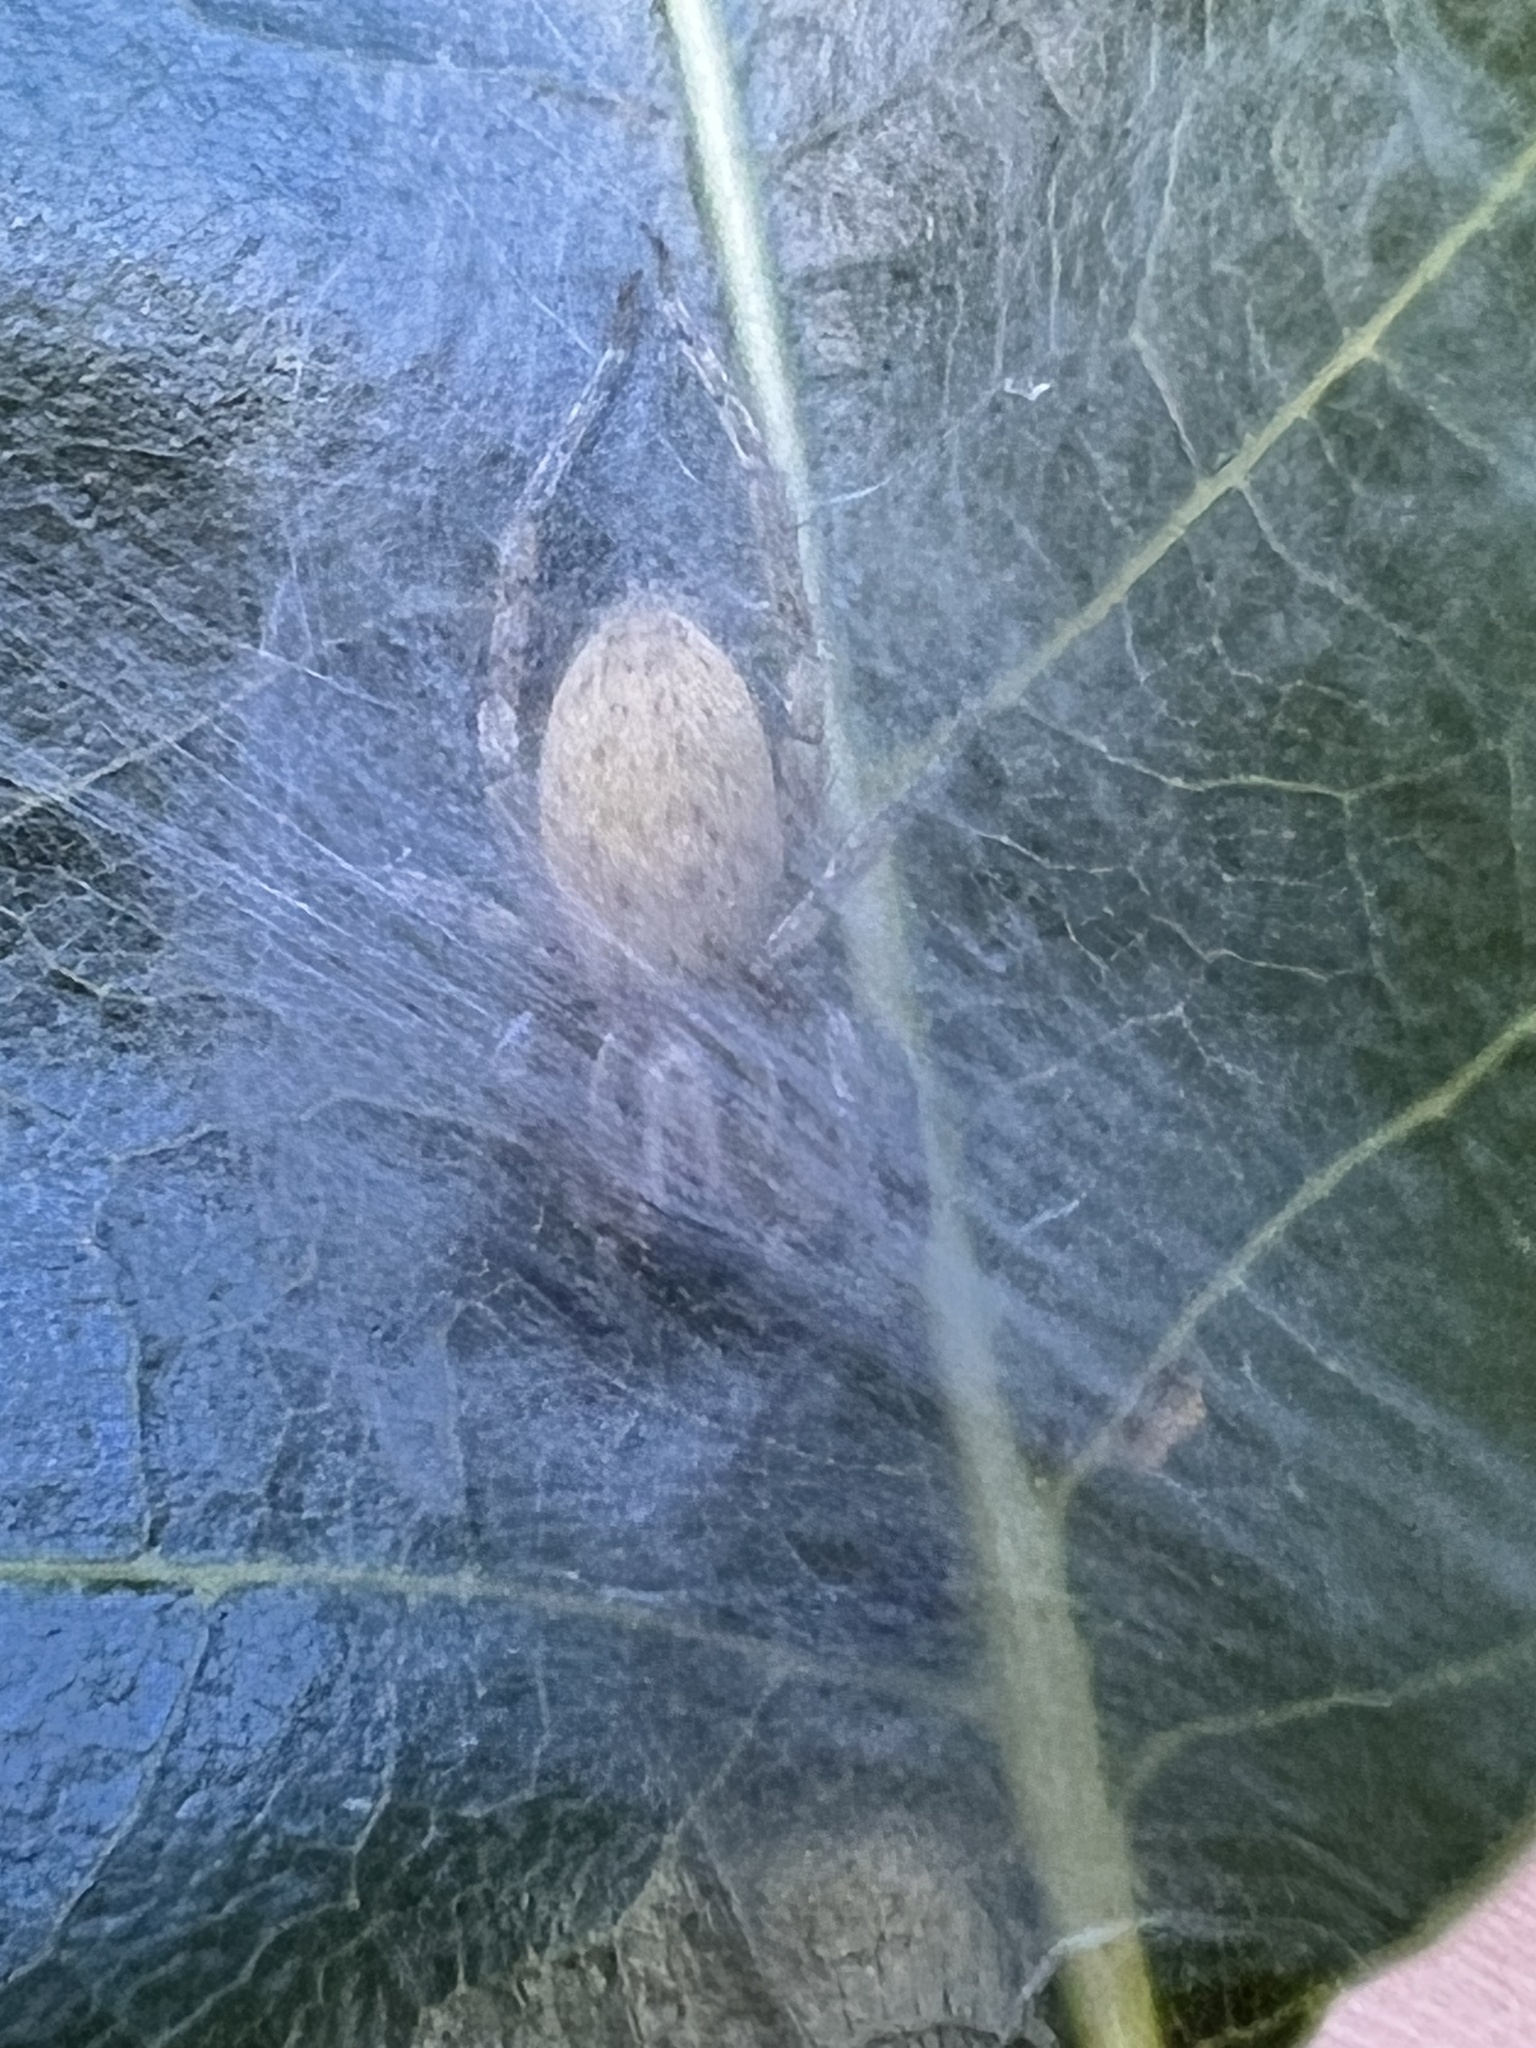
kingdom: Animalia
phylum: Arthropoda
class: Arachnida
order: Araneae
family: Anyphaenidae
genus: Hibana
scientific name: Hibana gracilis
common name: Garden ghost spider
